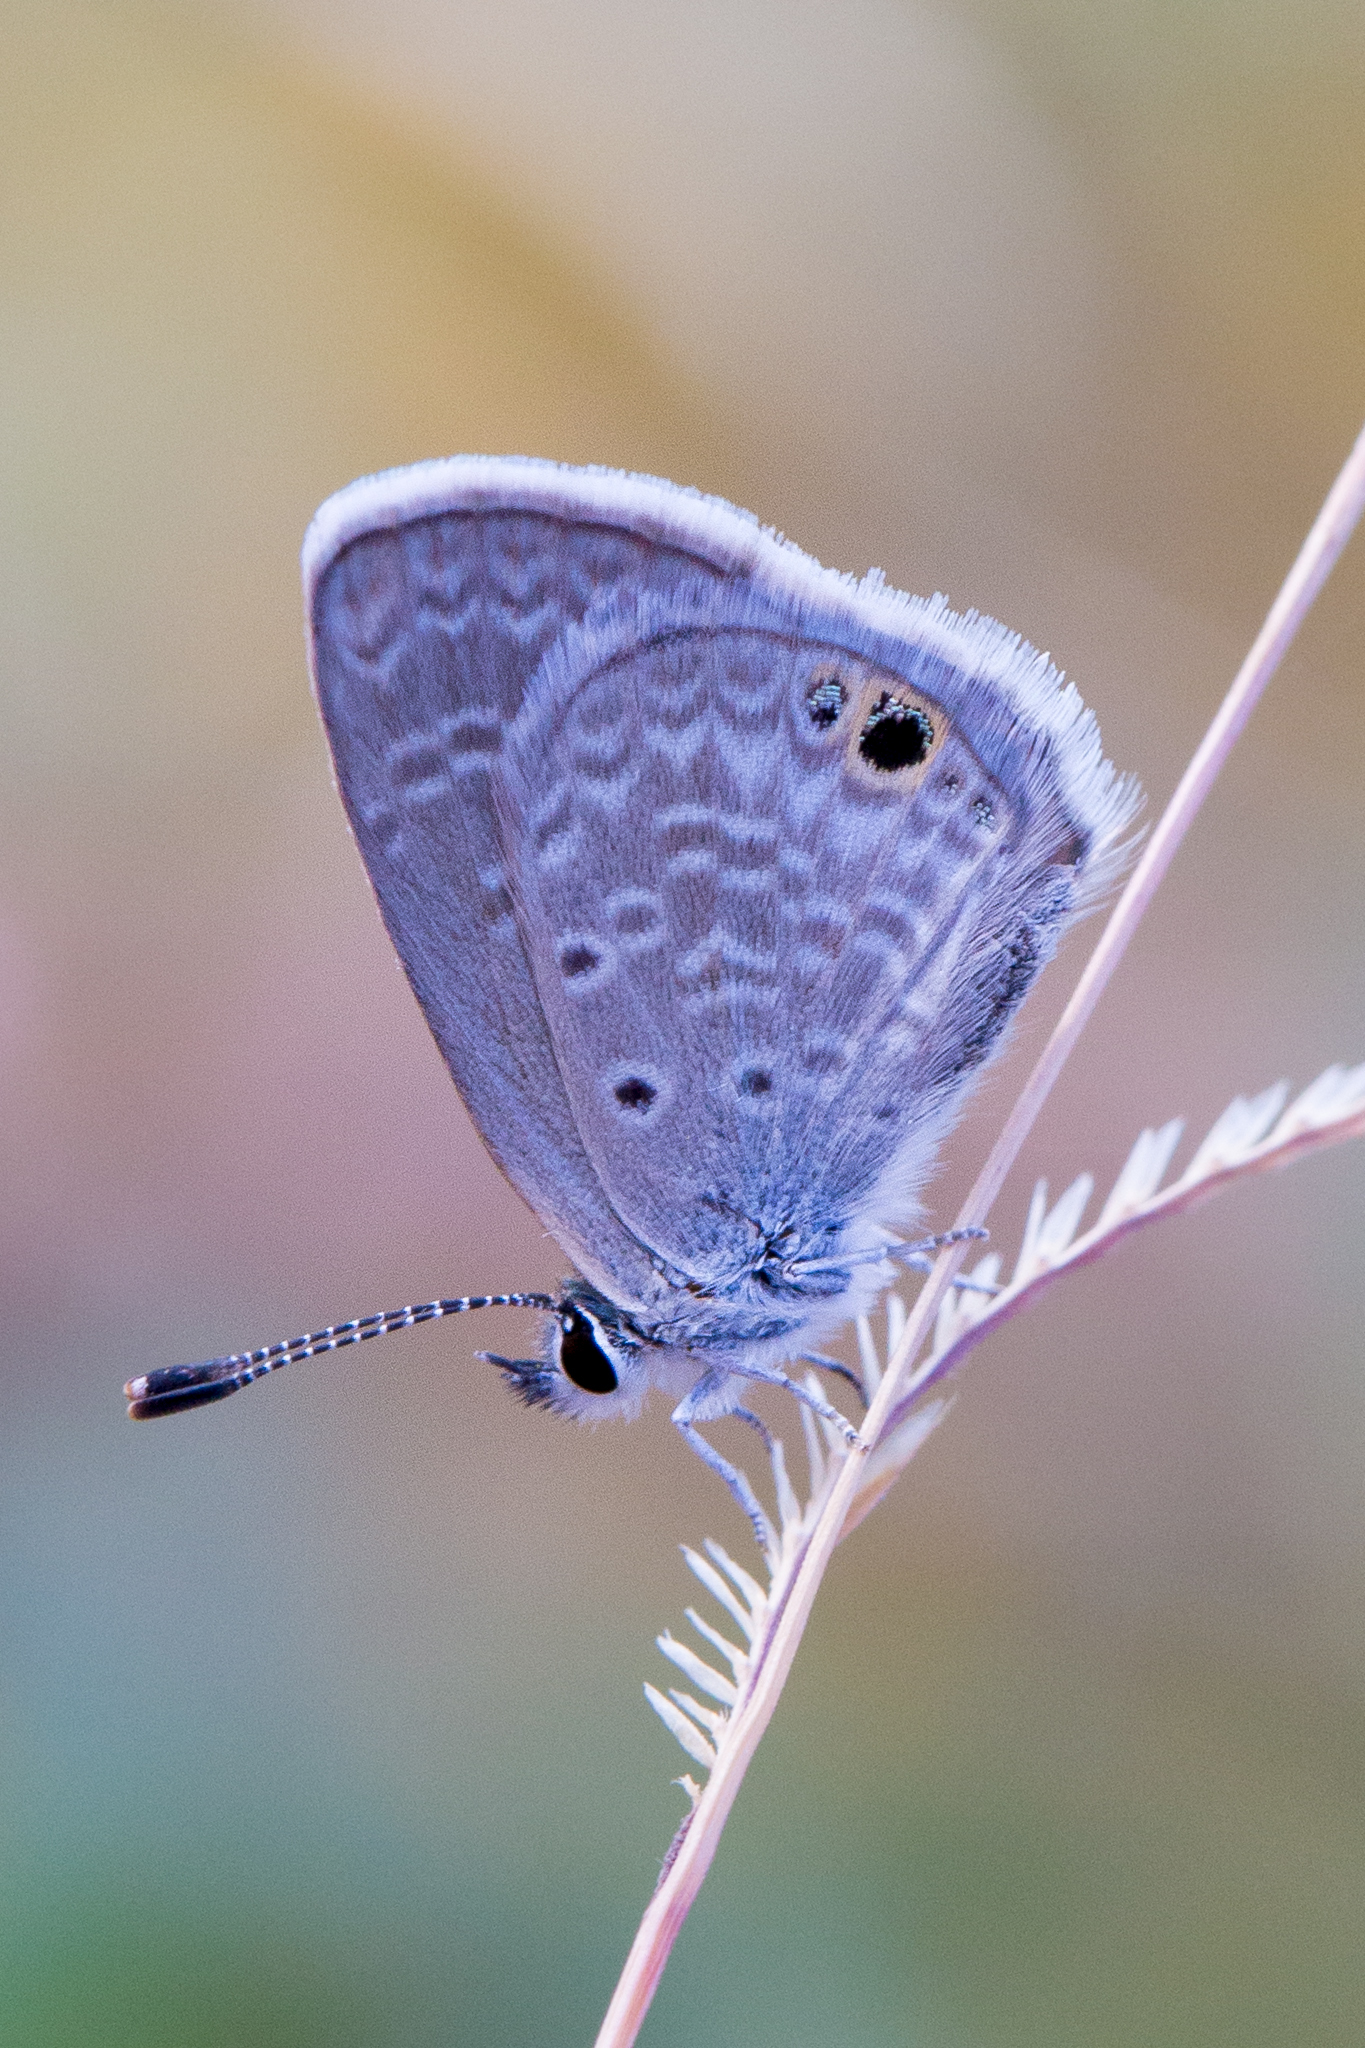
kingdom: Animalia
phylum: Arthropoda
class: Insecta
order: Lepidoptera
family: Lycaenidae
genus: Hemiargus
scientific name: Hemiargus ceraunus
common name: Ceraunus blue
